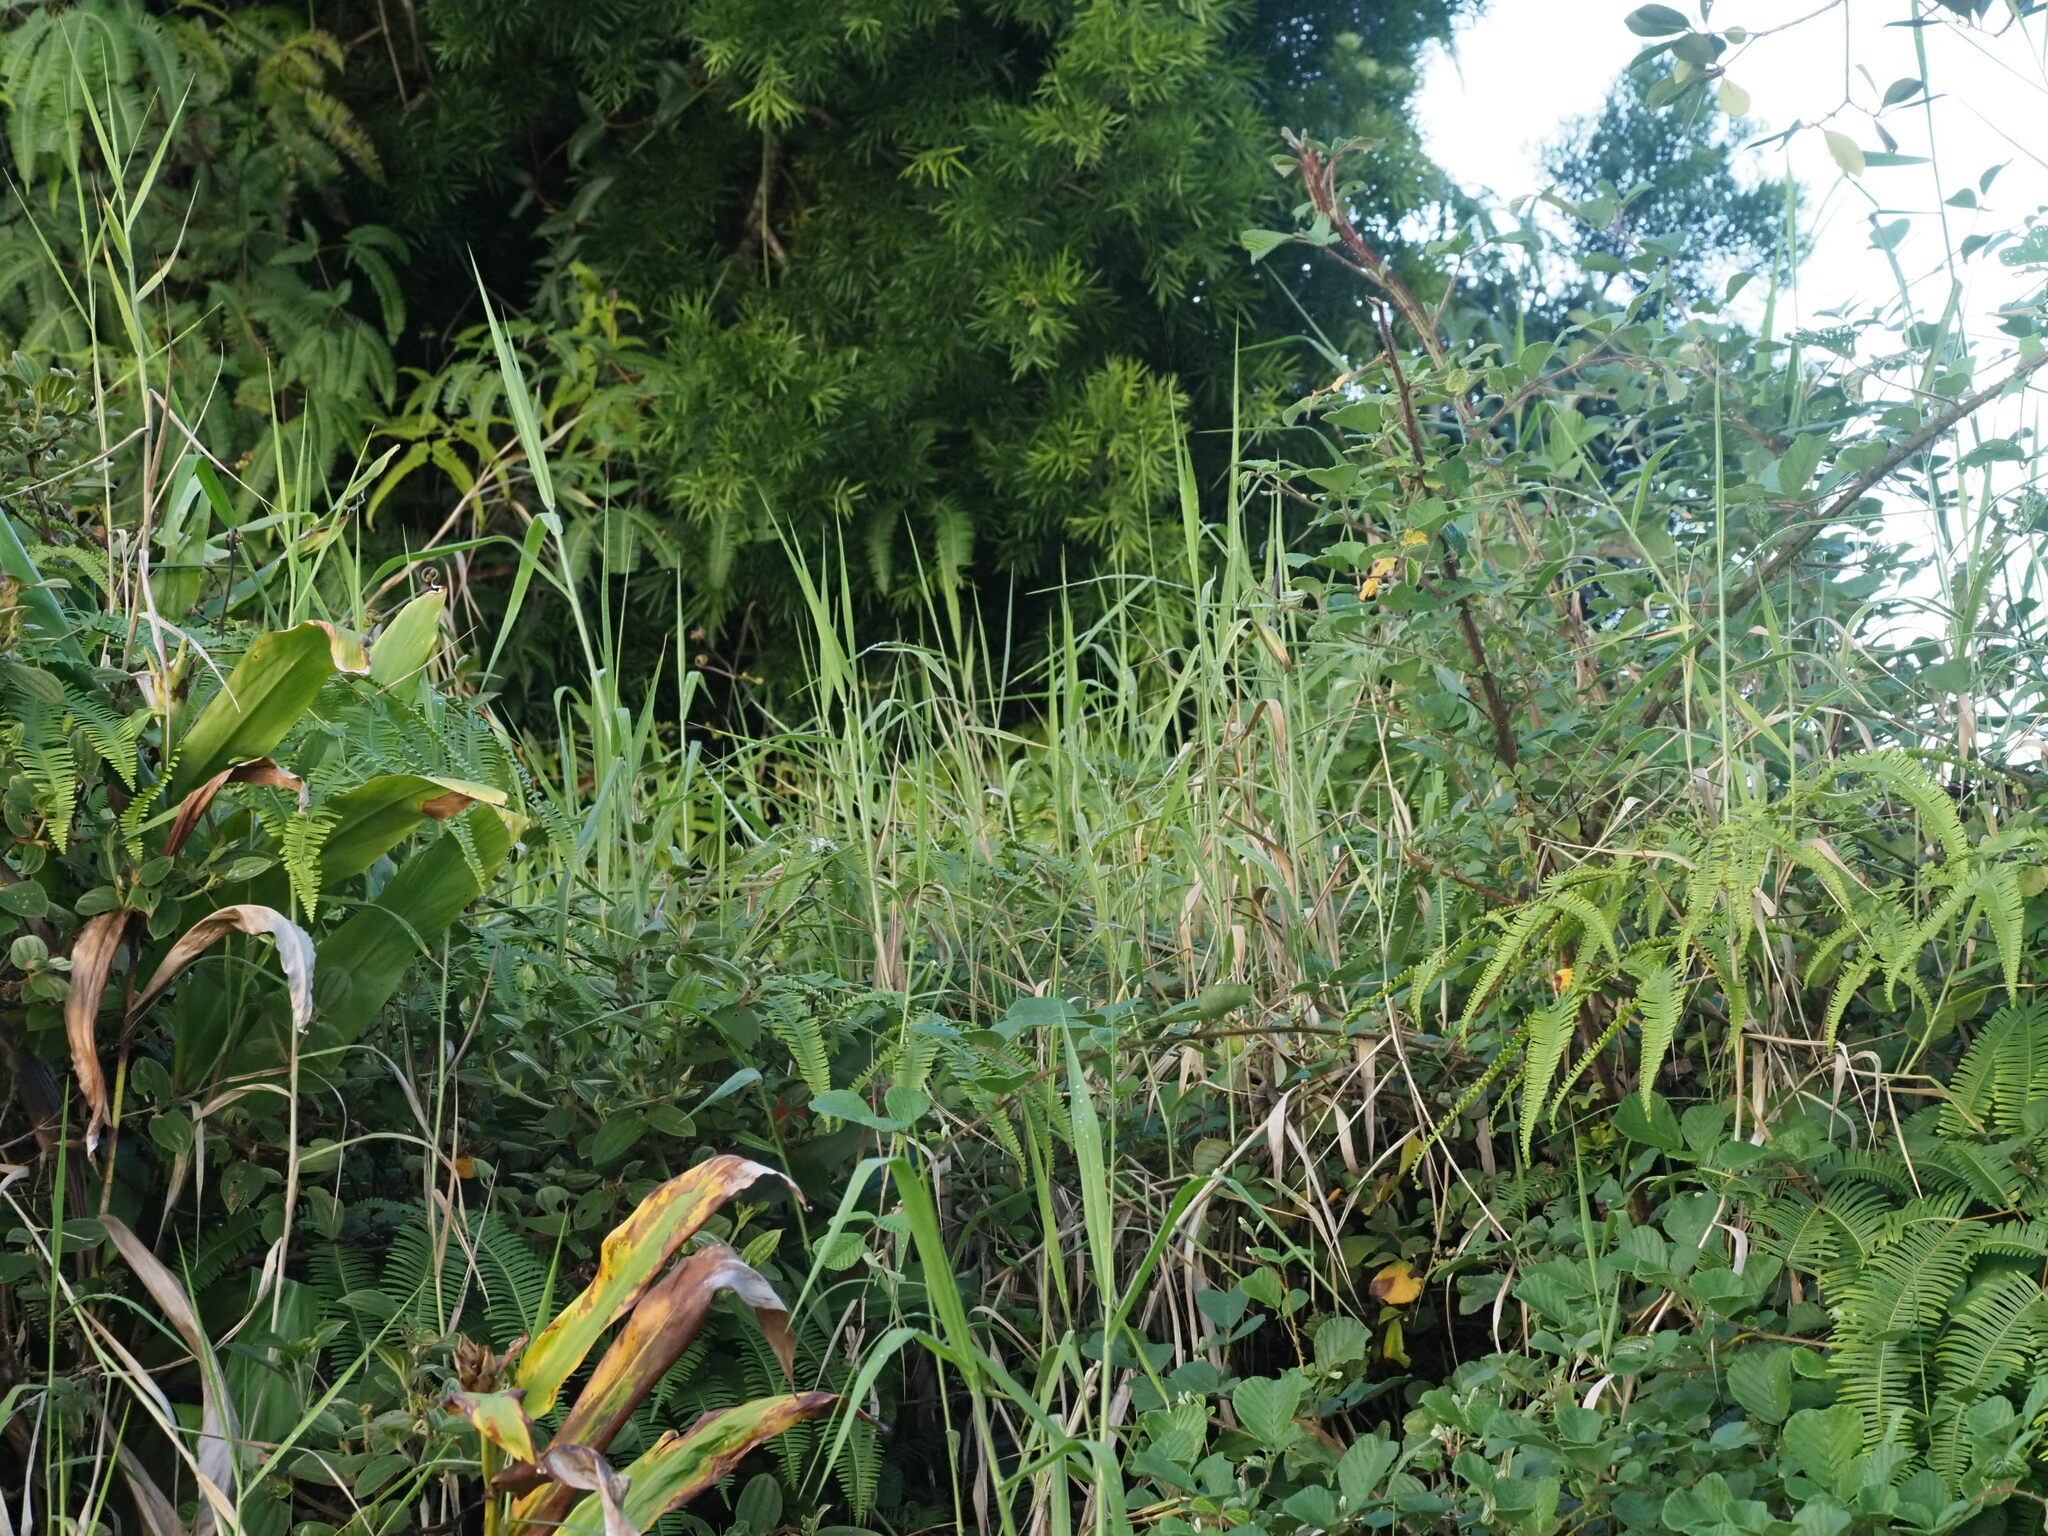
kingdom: Plantae
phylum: Tracheophyta
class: Liliopsida
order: Poales
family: Poaceae
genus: Urochloa
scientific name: Urochloa mutica
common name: Para grass
